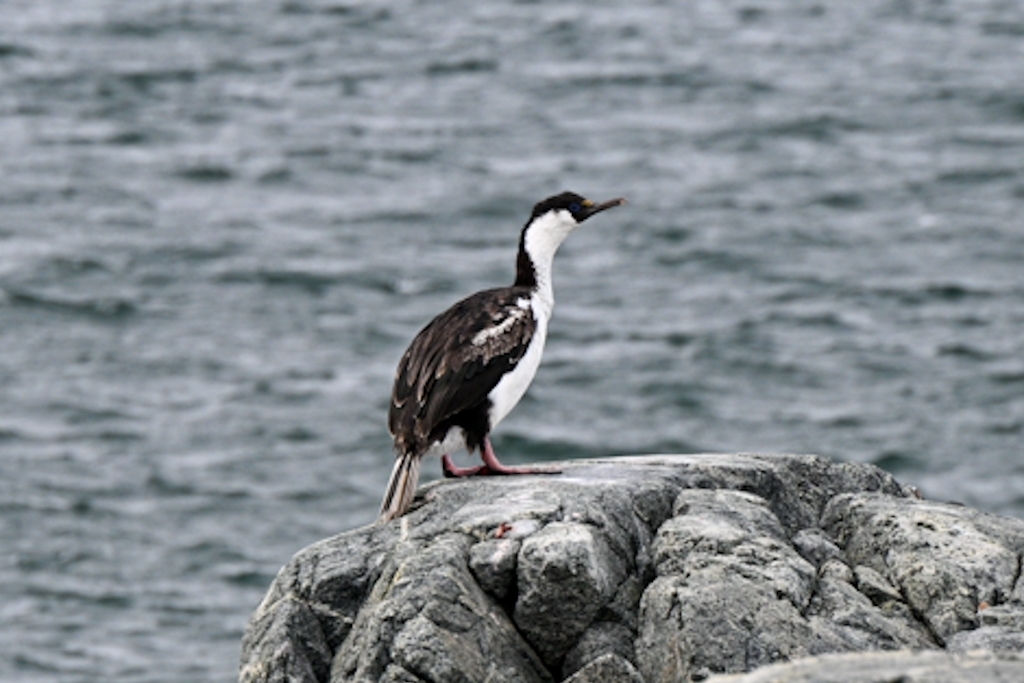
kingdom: Animalia
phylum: Chordata
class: Aves
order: Suliformes
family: Phalacrocoracidae
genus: Leucocarbo
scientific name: Leucocarbo atriceps
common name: Imperial shag
